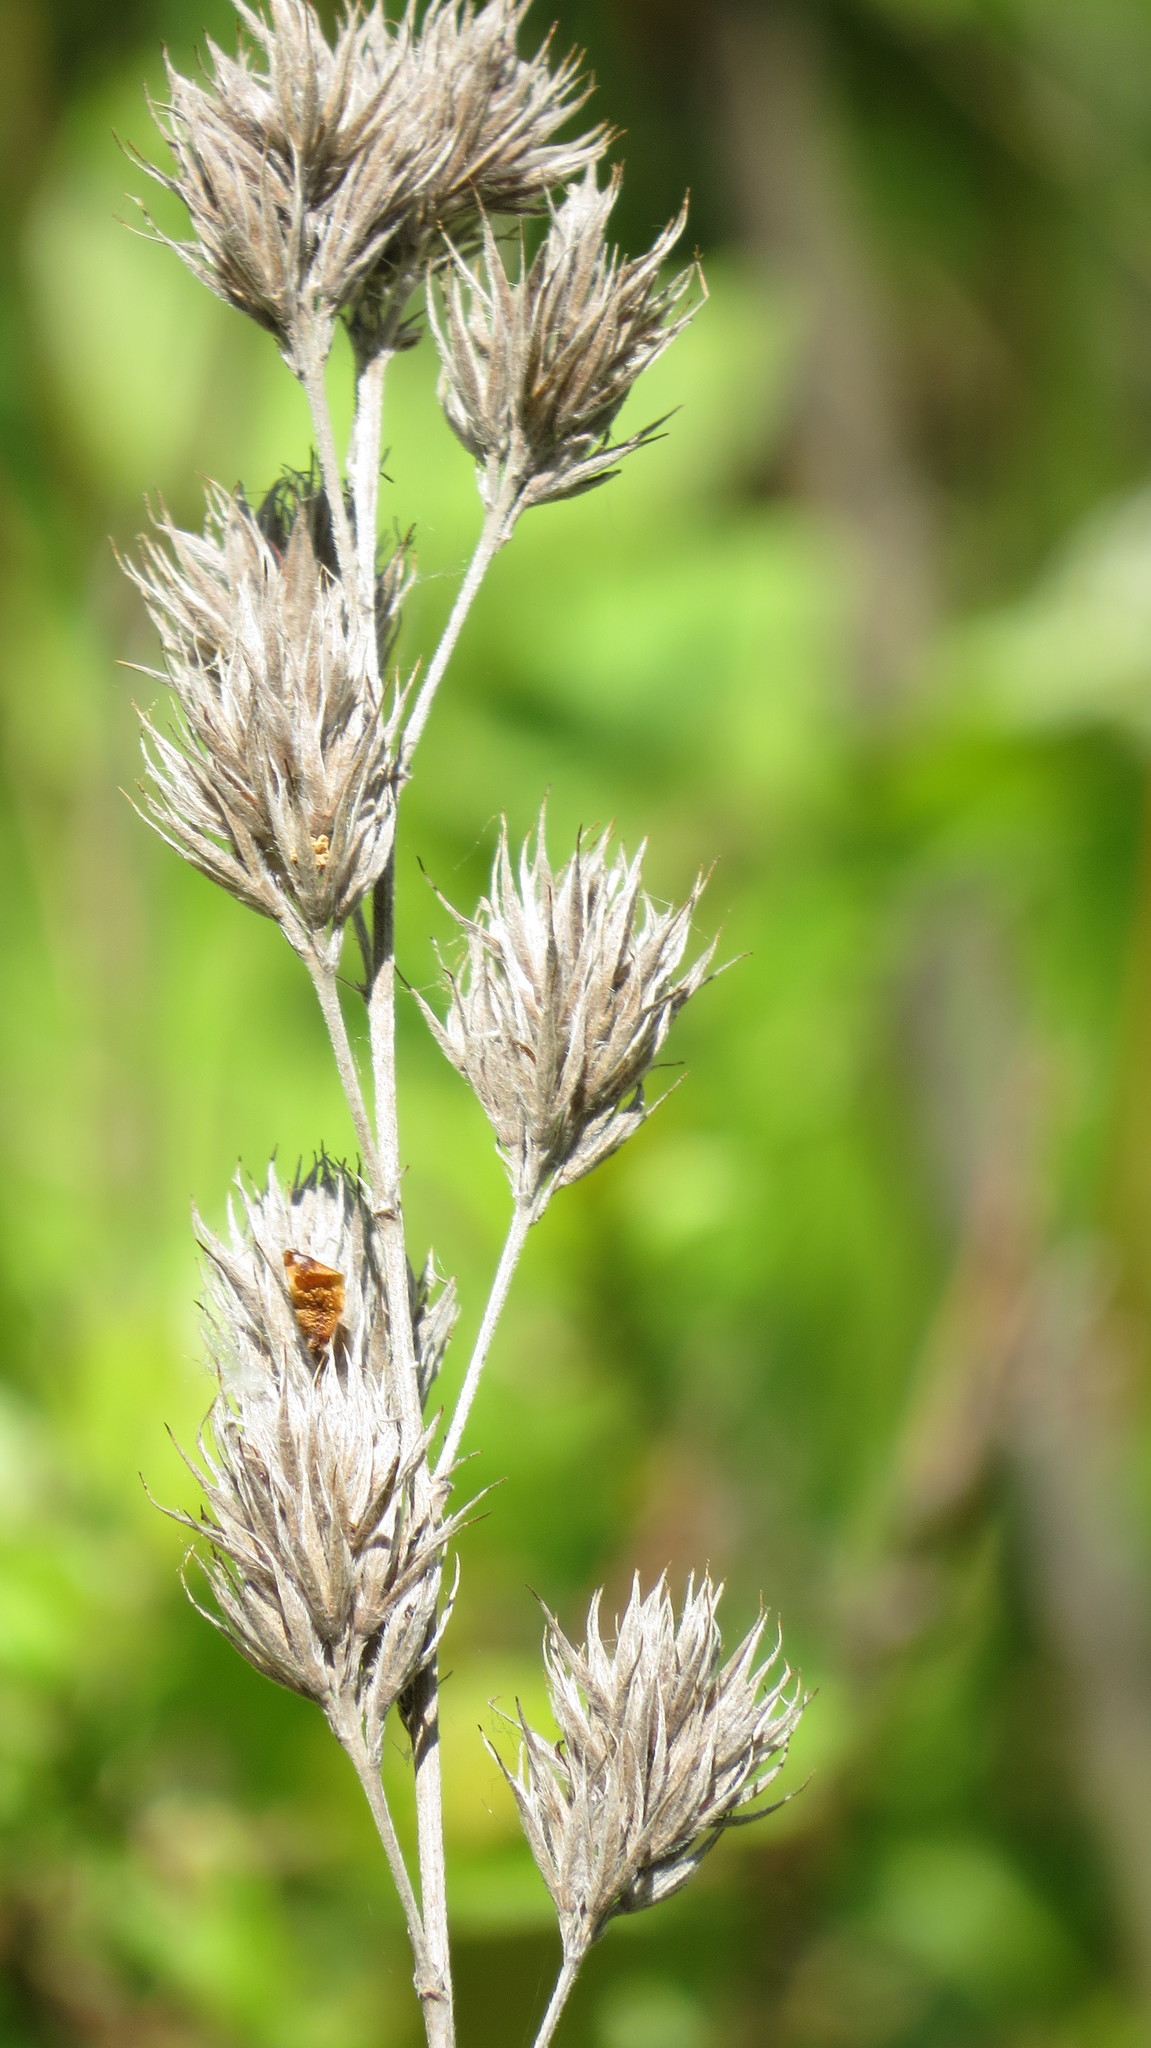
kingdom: Plantae
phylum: Tracheophyta
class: Magnoliopsida
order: Fabales
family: Fabaceae
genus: Lespedeza
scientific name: Lespedeza capitata
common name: Dusty clover
